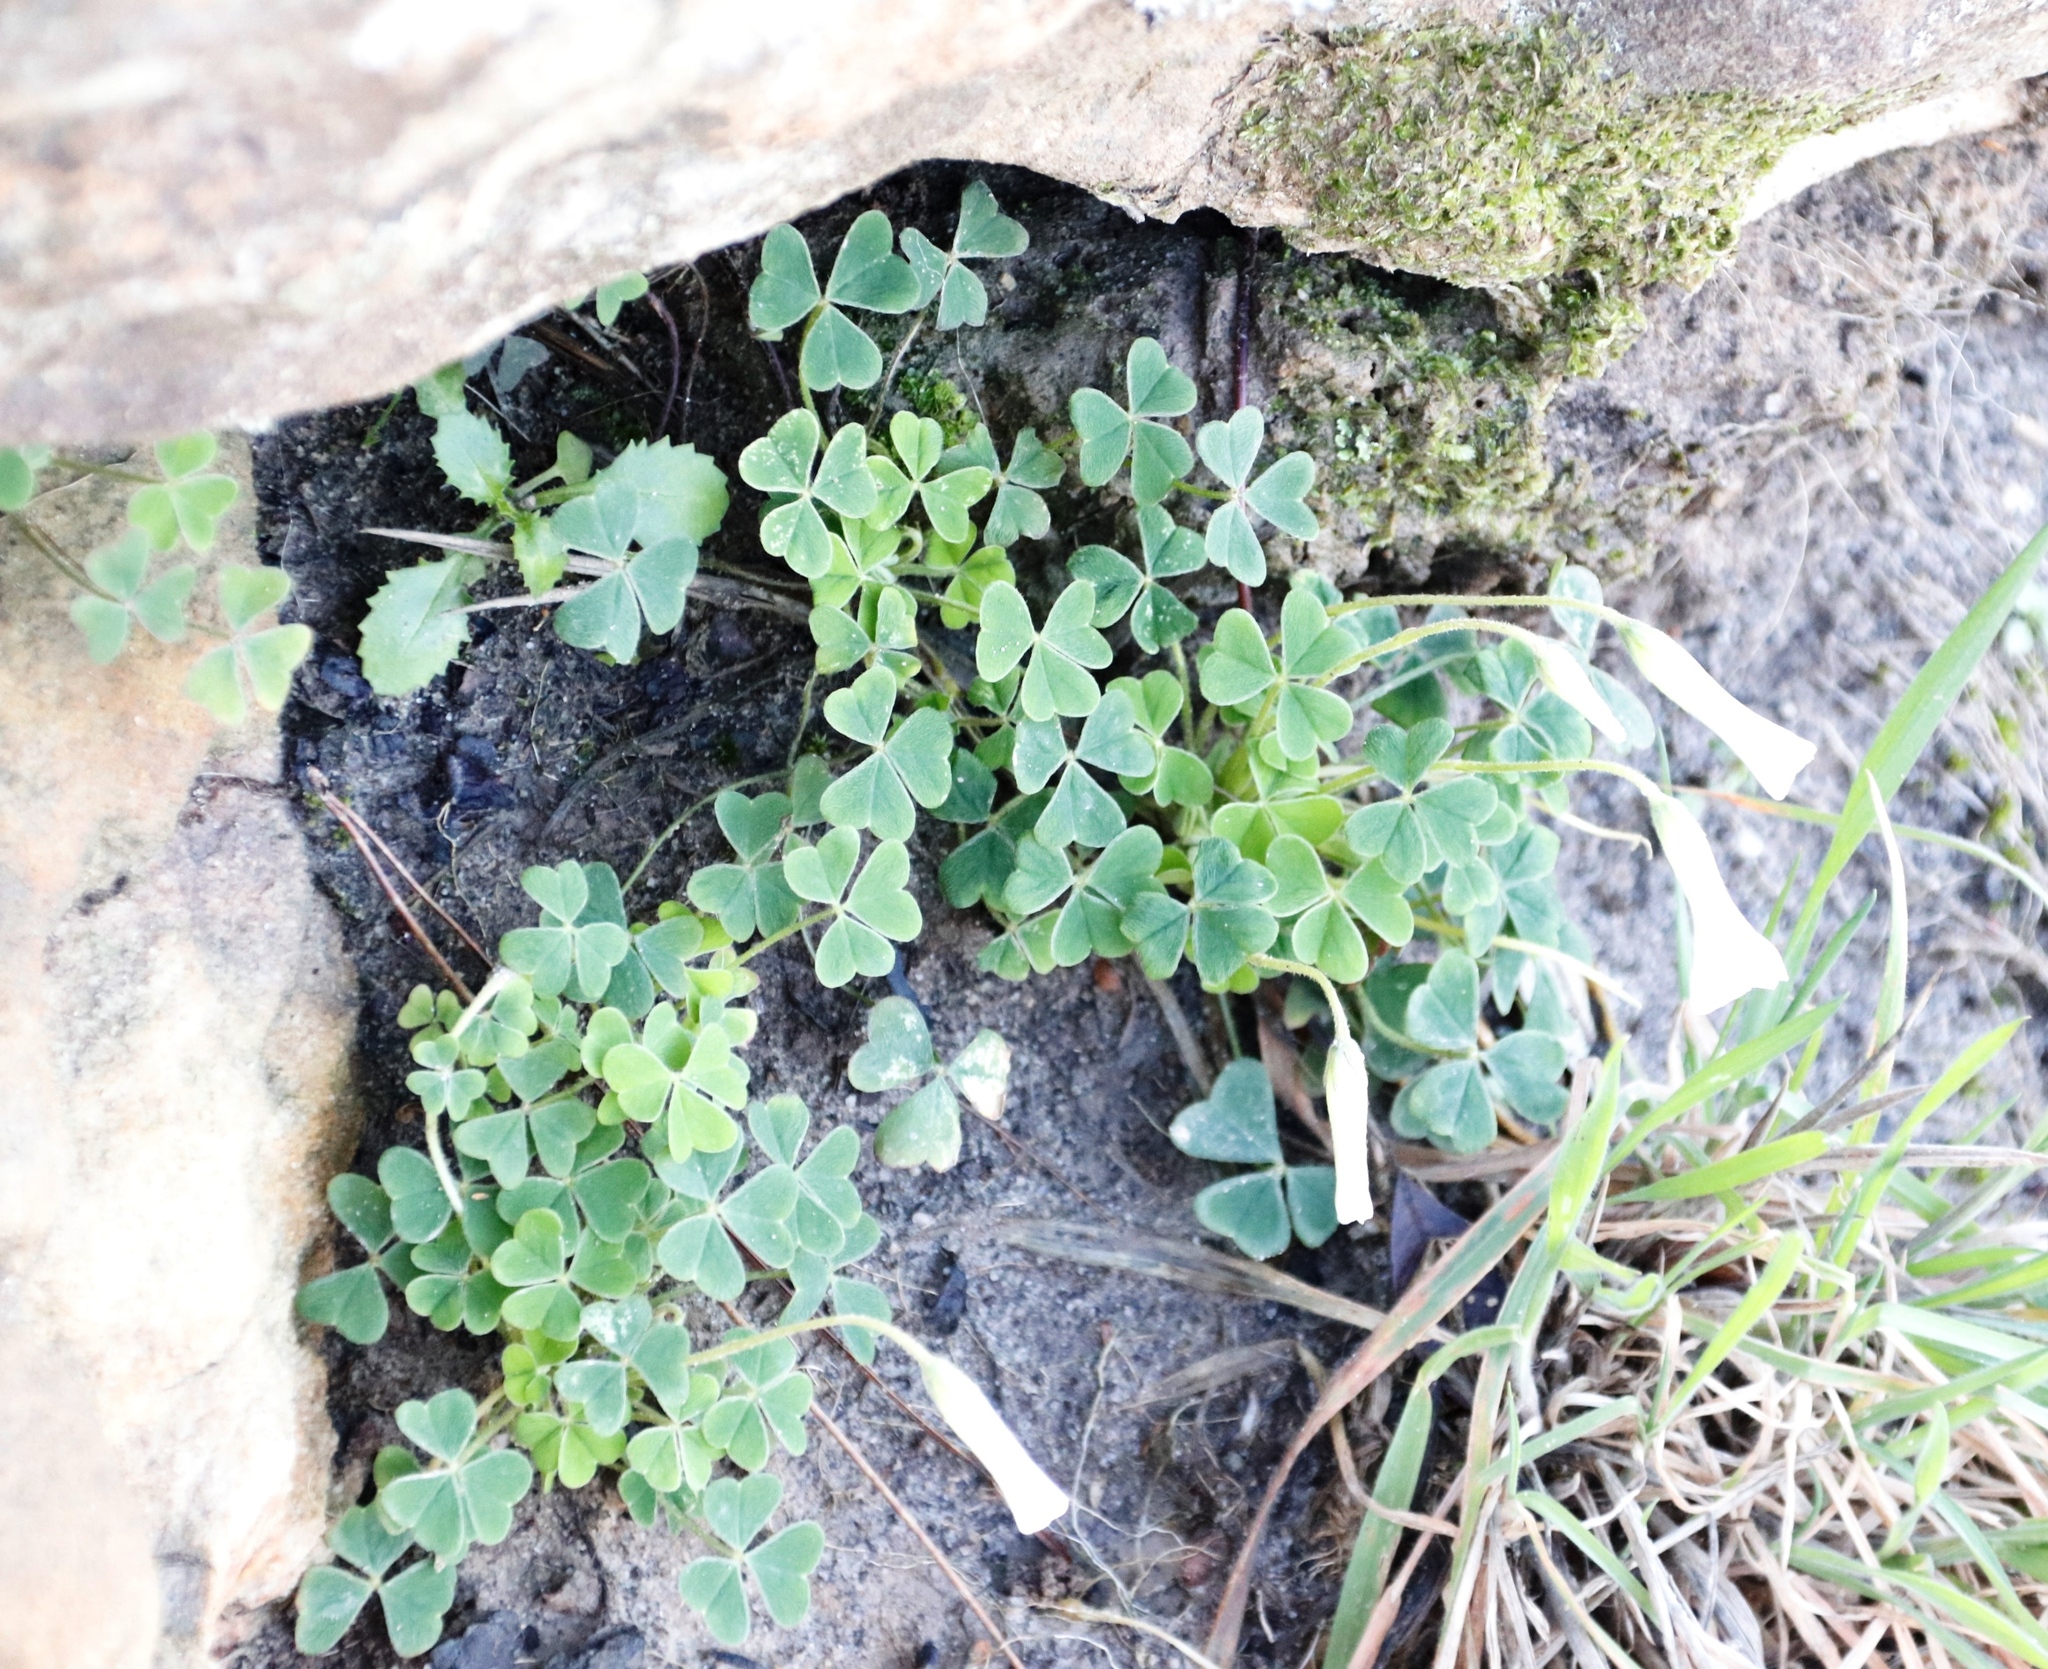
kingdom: Plantae
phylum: Tracheophyta
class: Magnoliopsida
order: Oxalidales
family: Oxalidaceae
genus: Oxalis
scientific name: Oxalis lanata
